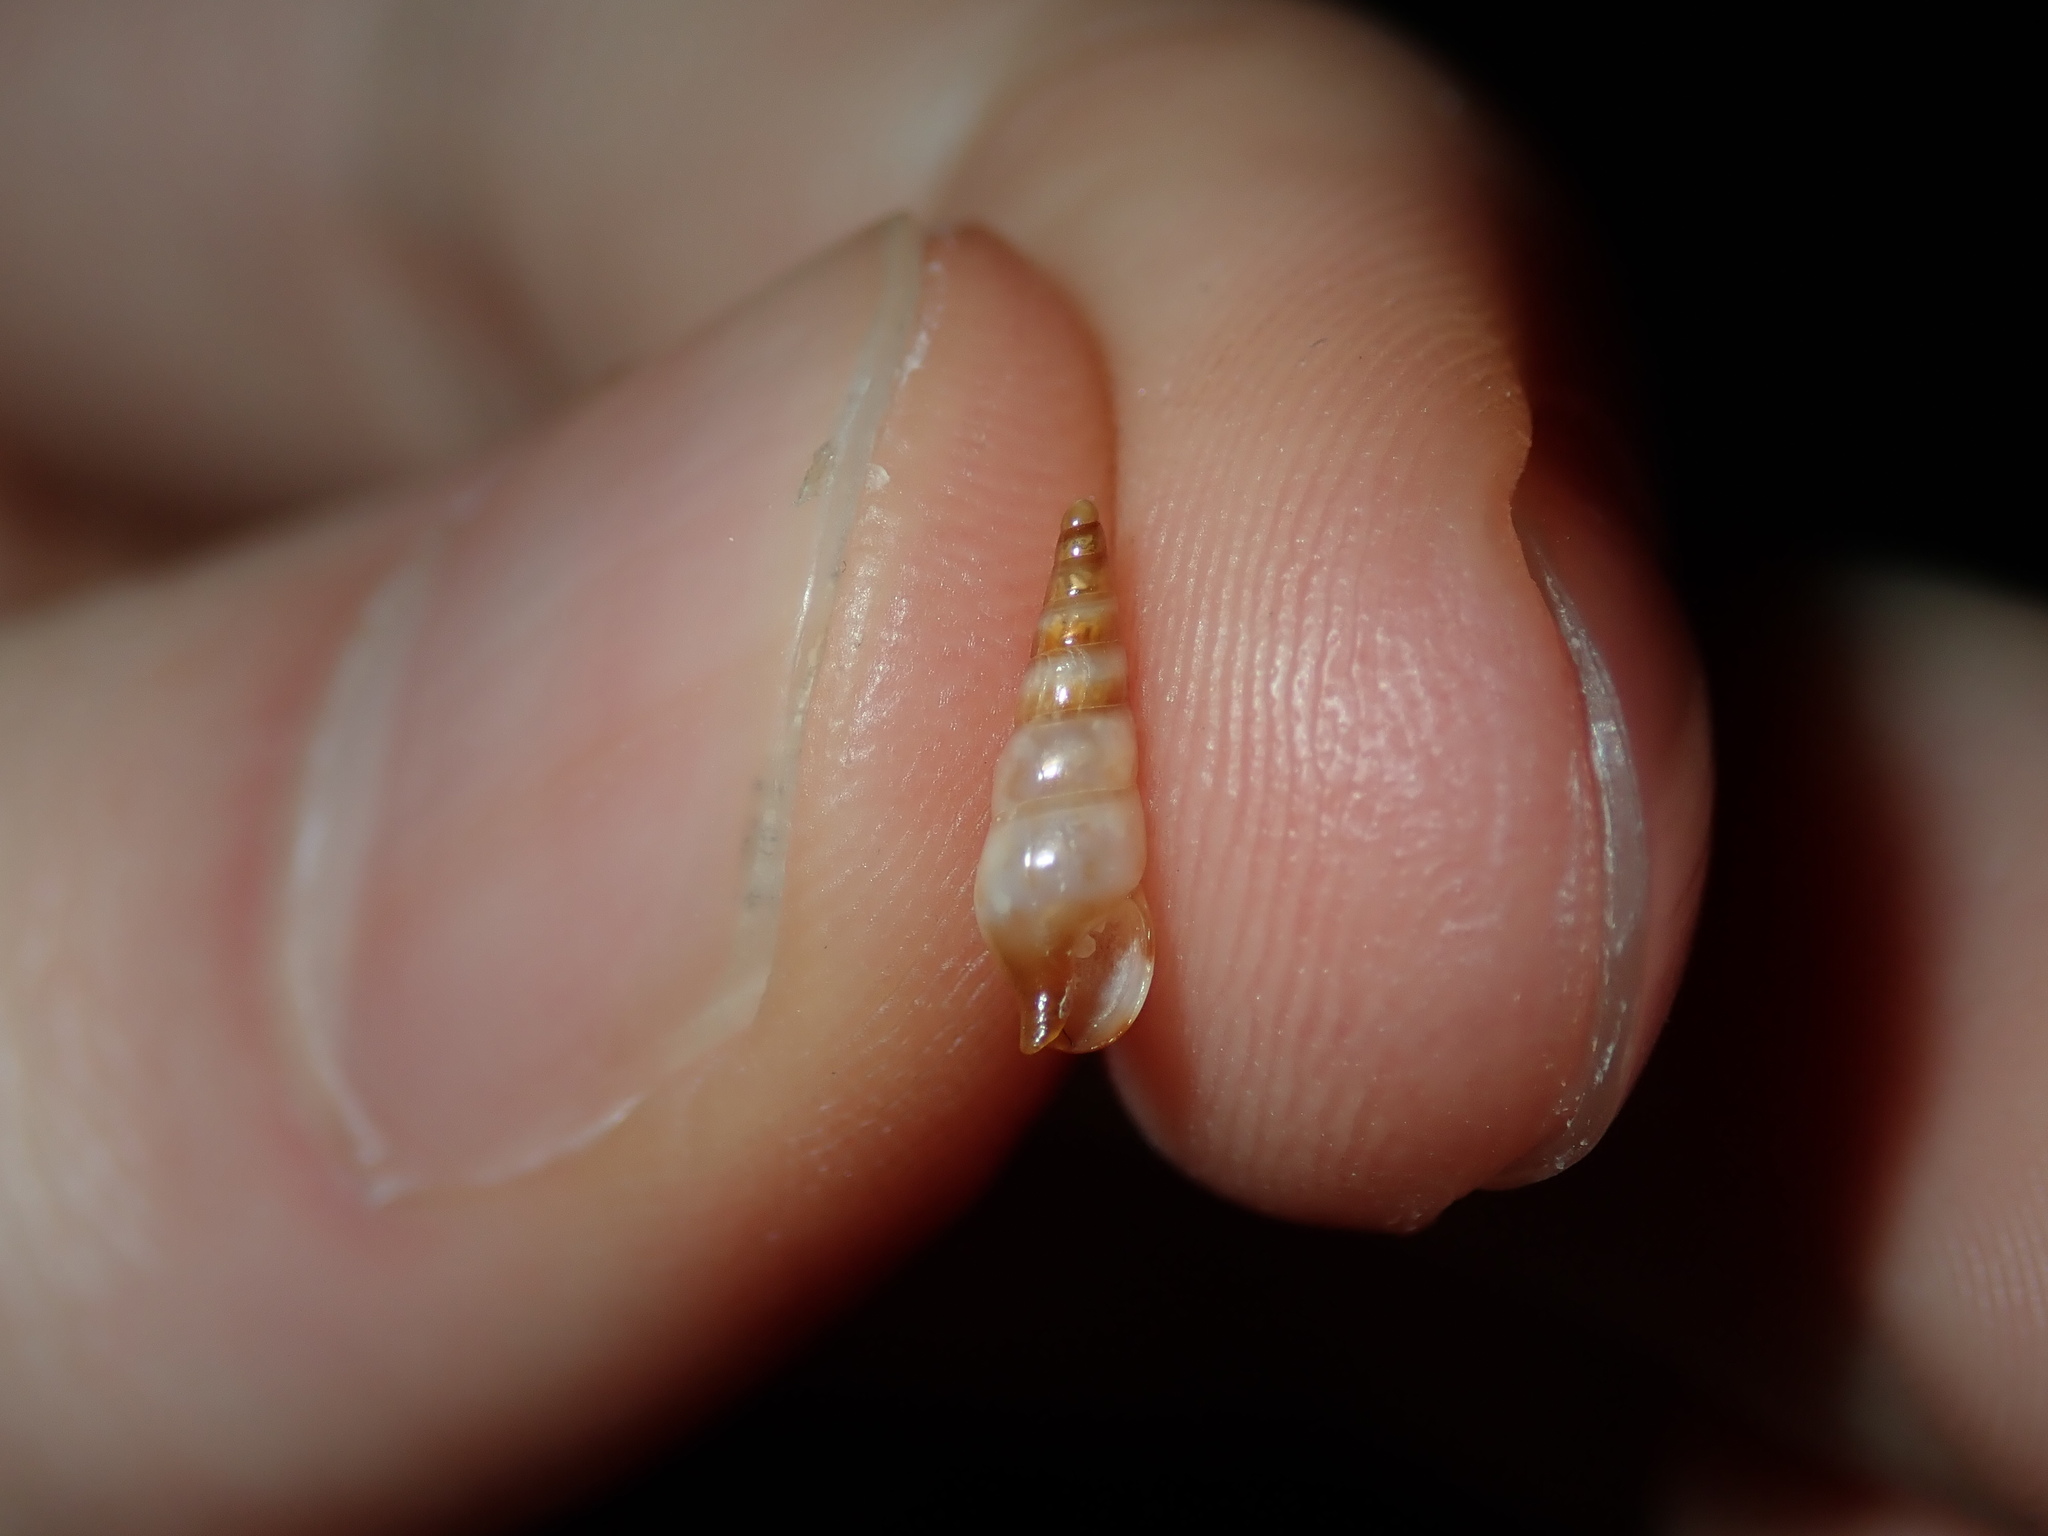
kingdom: Animalia
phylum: Mollusca
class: Gastropoda
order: Neogastropoda
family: Columbellidae
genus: Zella
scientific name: Zella beddomei
